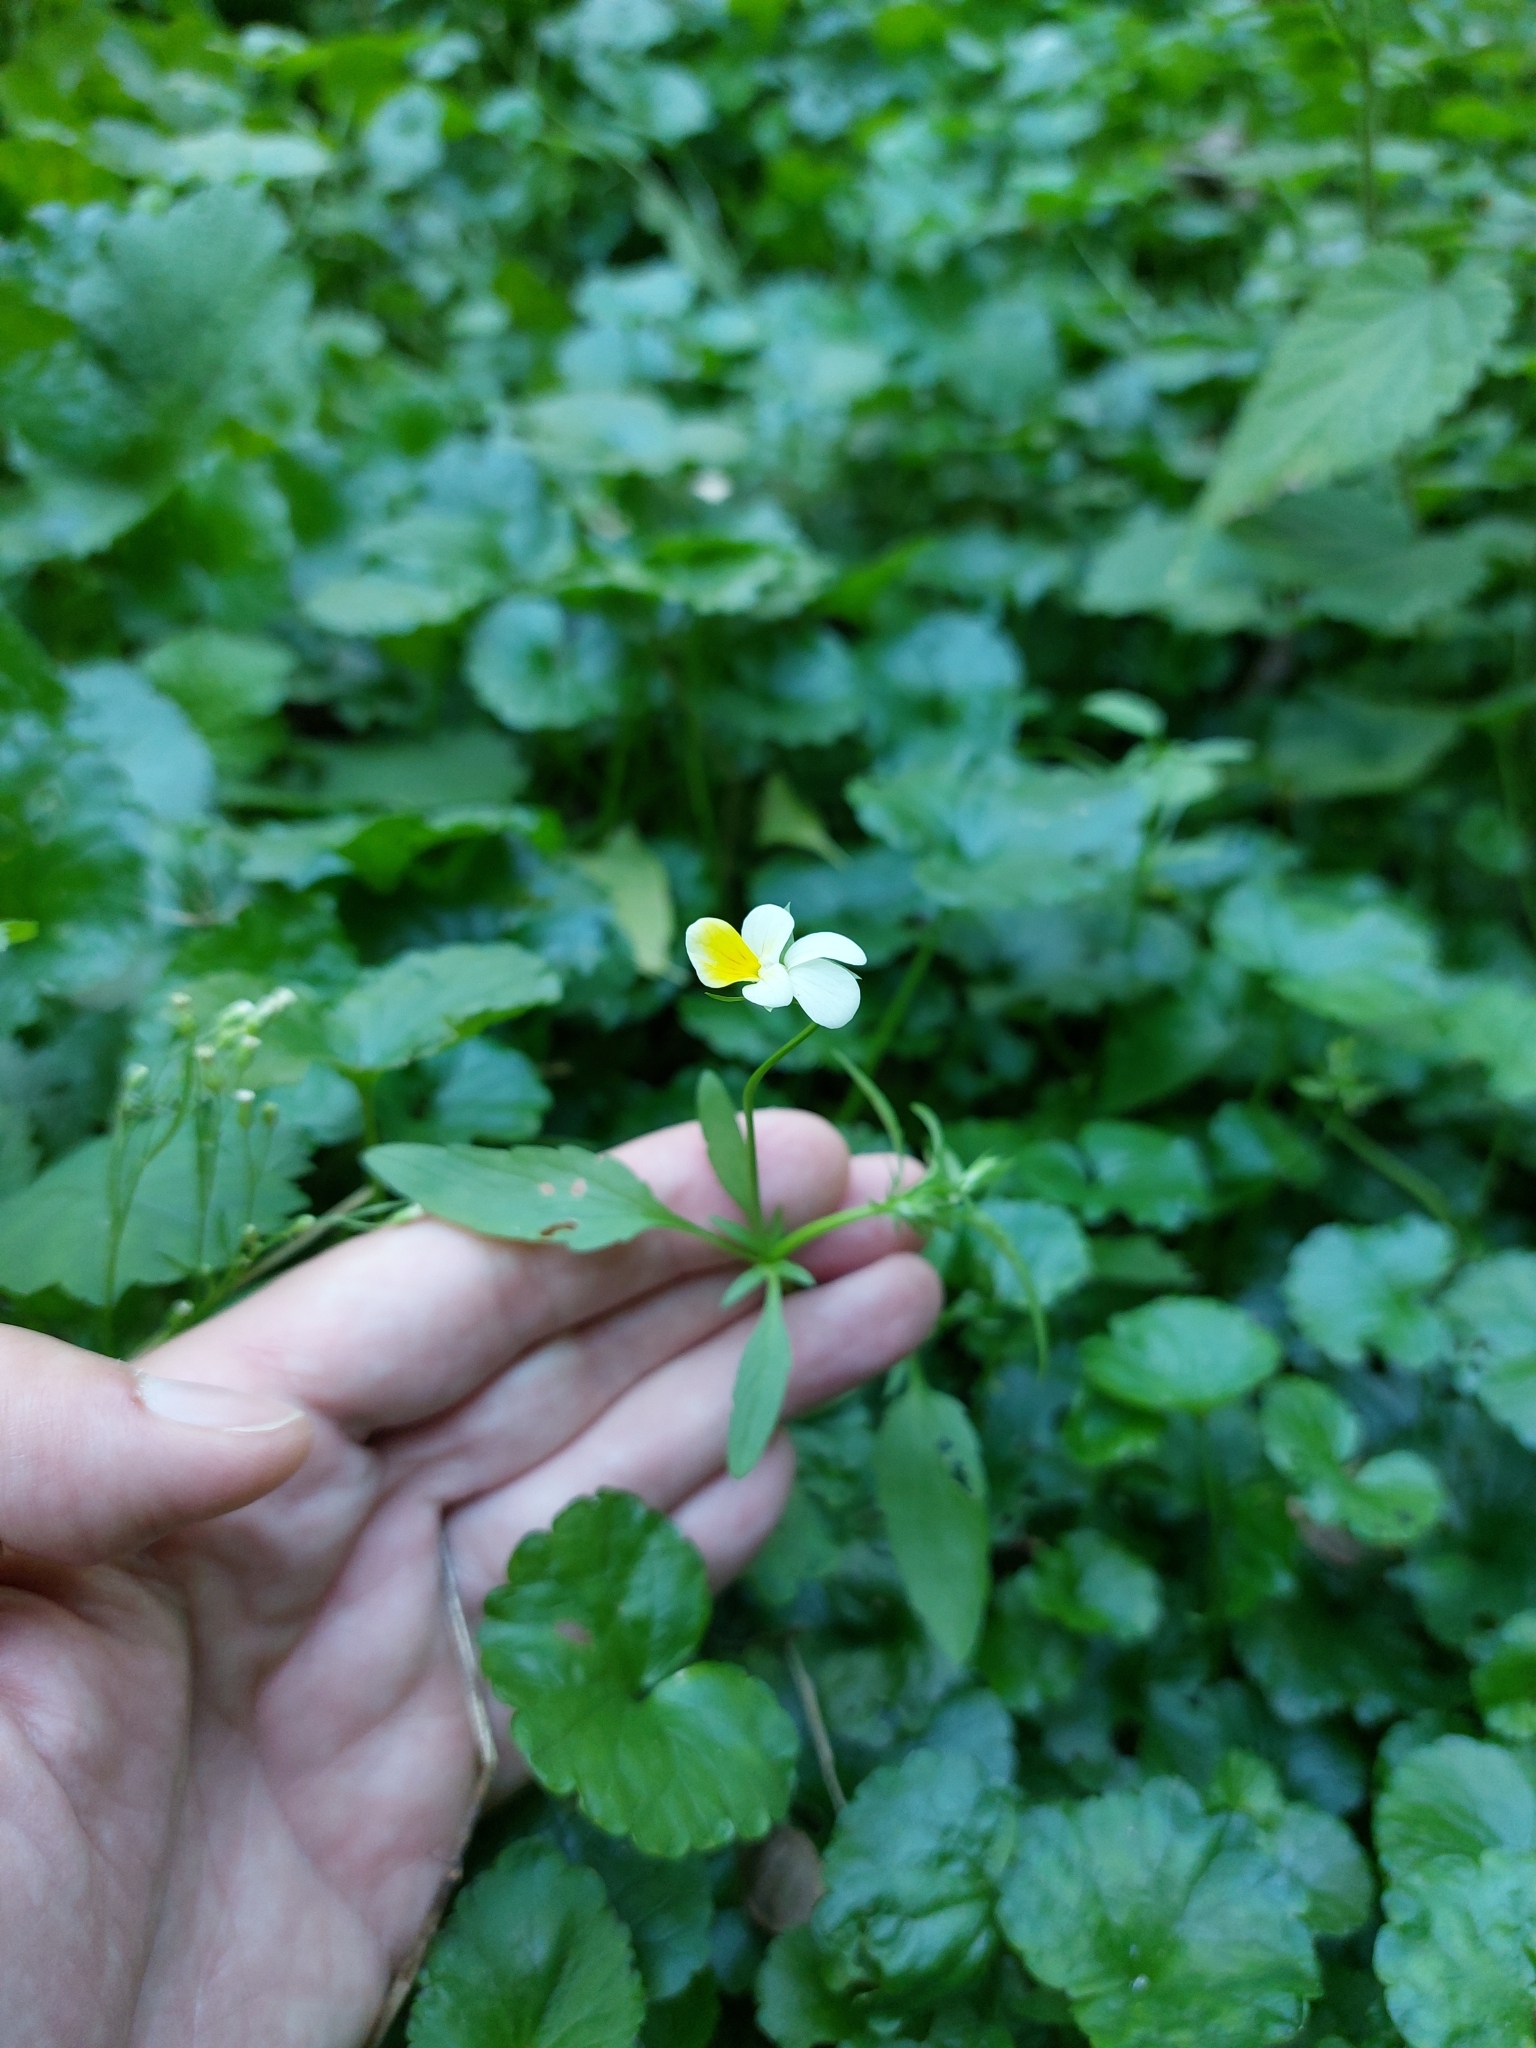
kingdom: Plantae
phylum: Tracheophyta
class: Magnoliopsida
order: Malpighiales
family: Violaceae
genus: Viola
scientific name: Viola arvensis
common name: Field pansy
